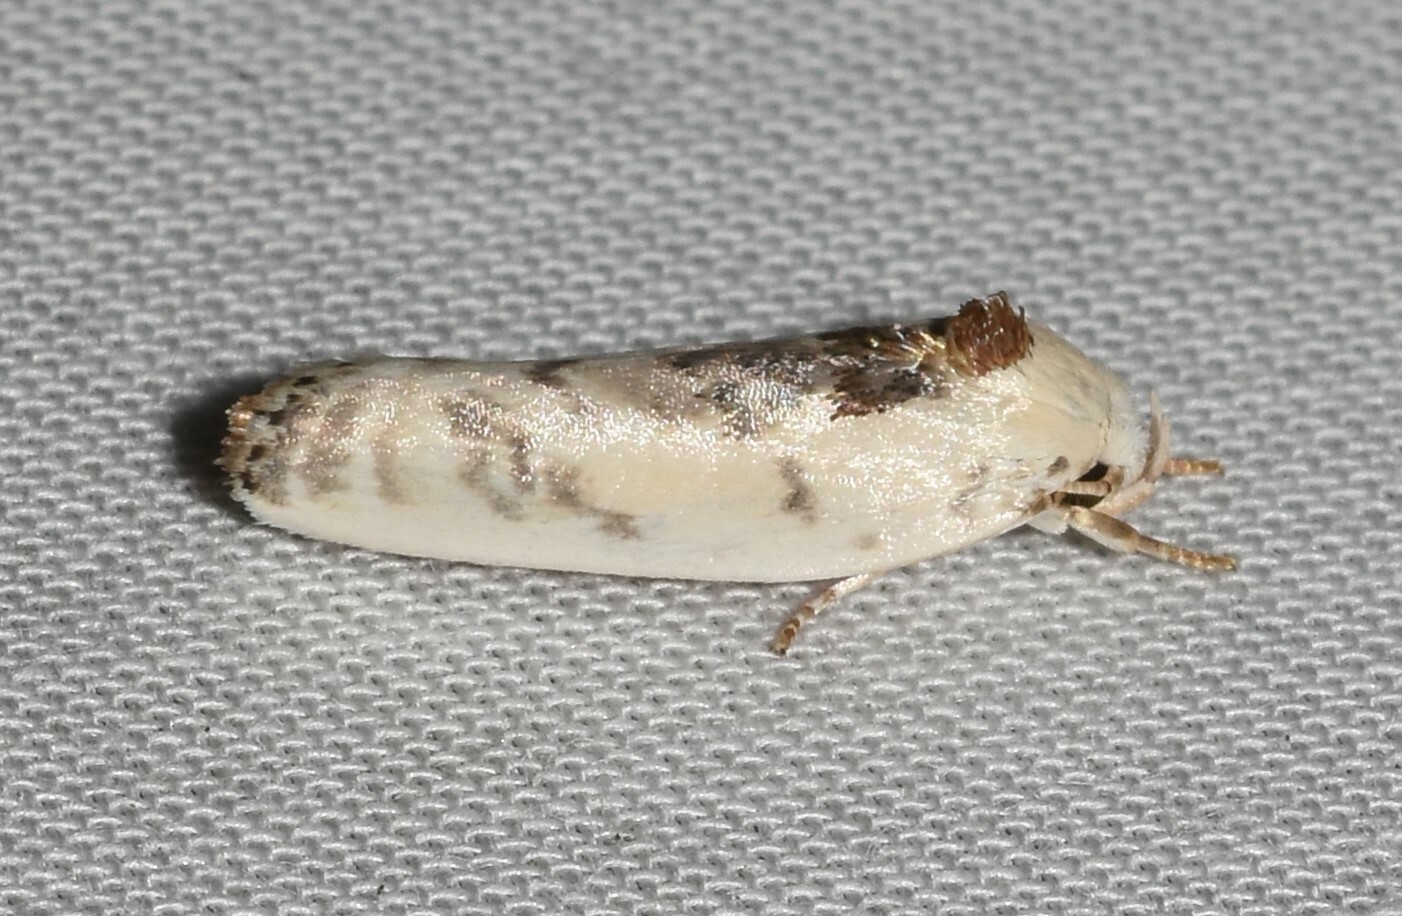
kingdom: Animalia
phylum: Arthropoda
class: Insecta
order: Lepidoptera
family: Depressariidae
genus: Antaeotricha
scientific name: Antaeotricha schlaegeri
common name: Schlaeger's fruitworm moth
